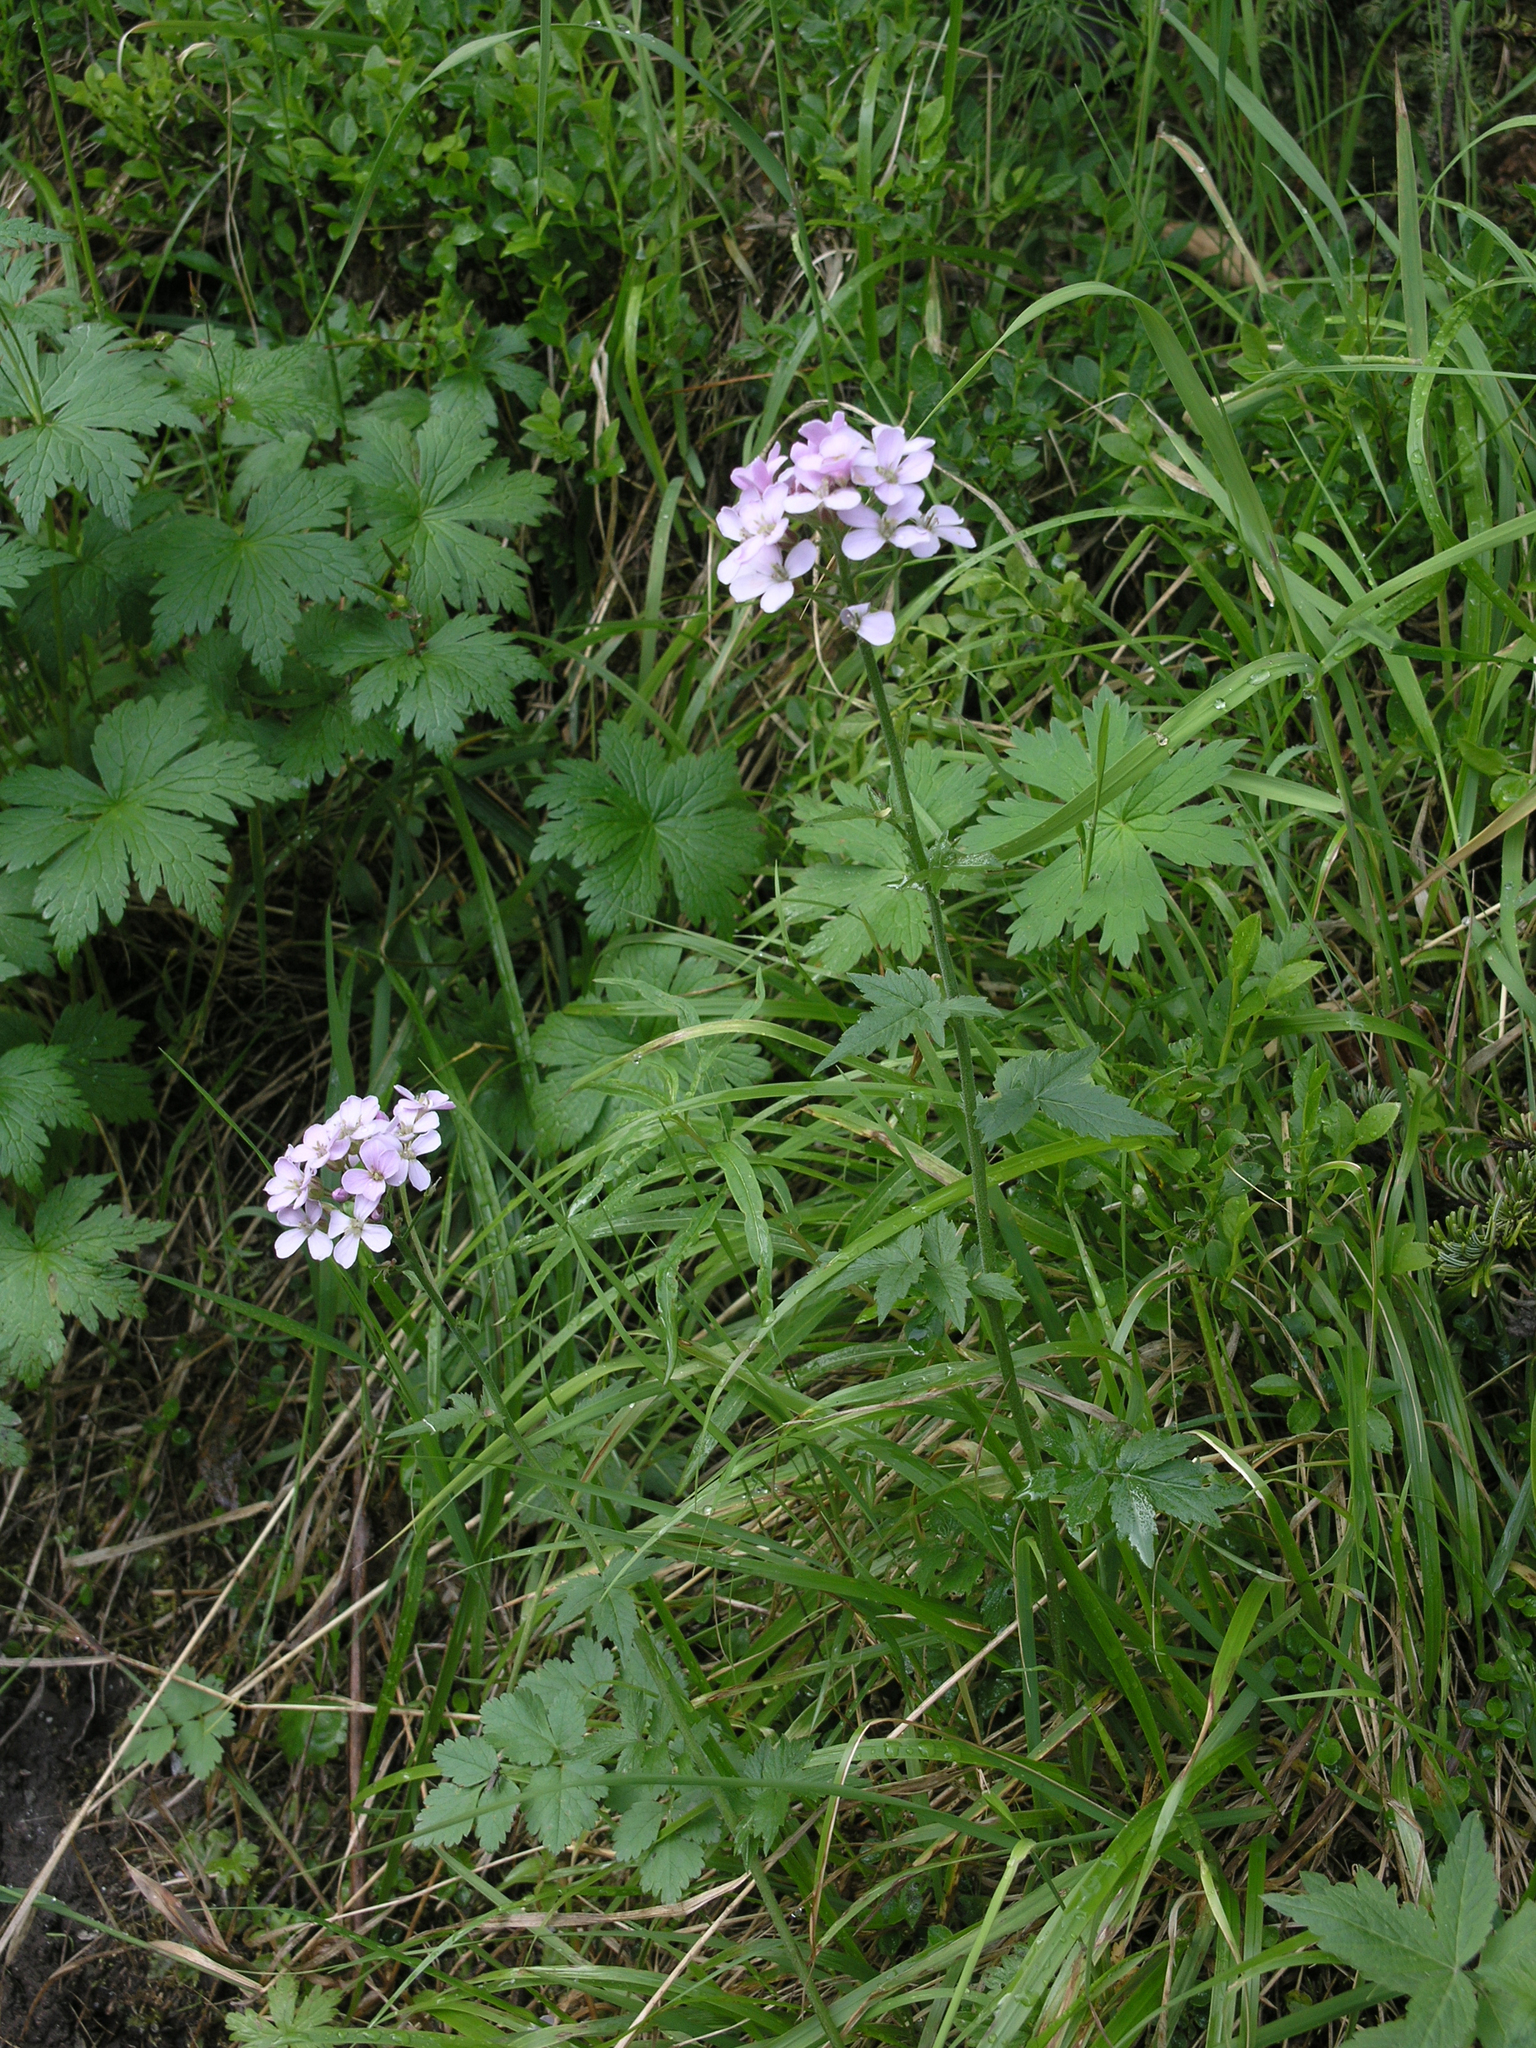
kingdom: Plantae
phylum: Tracheophyta
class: Magnoliopsida
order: Brassicales
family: Brassicaceae
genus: Cardamine
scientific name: Cardamine macrophylla
